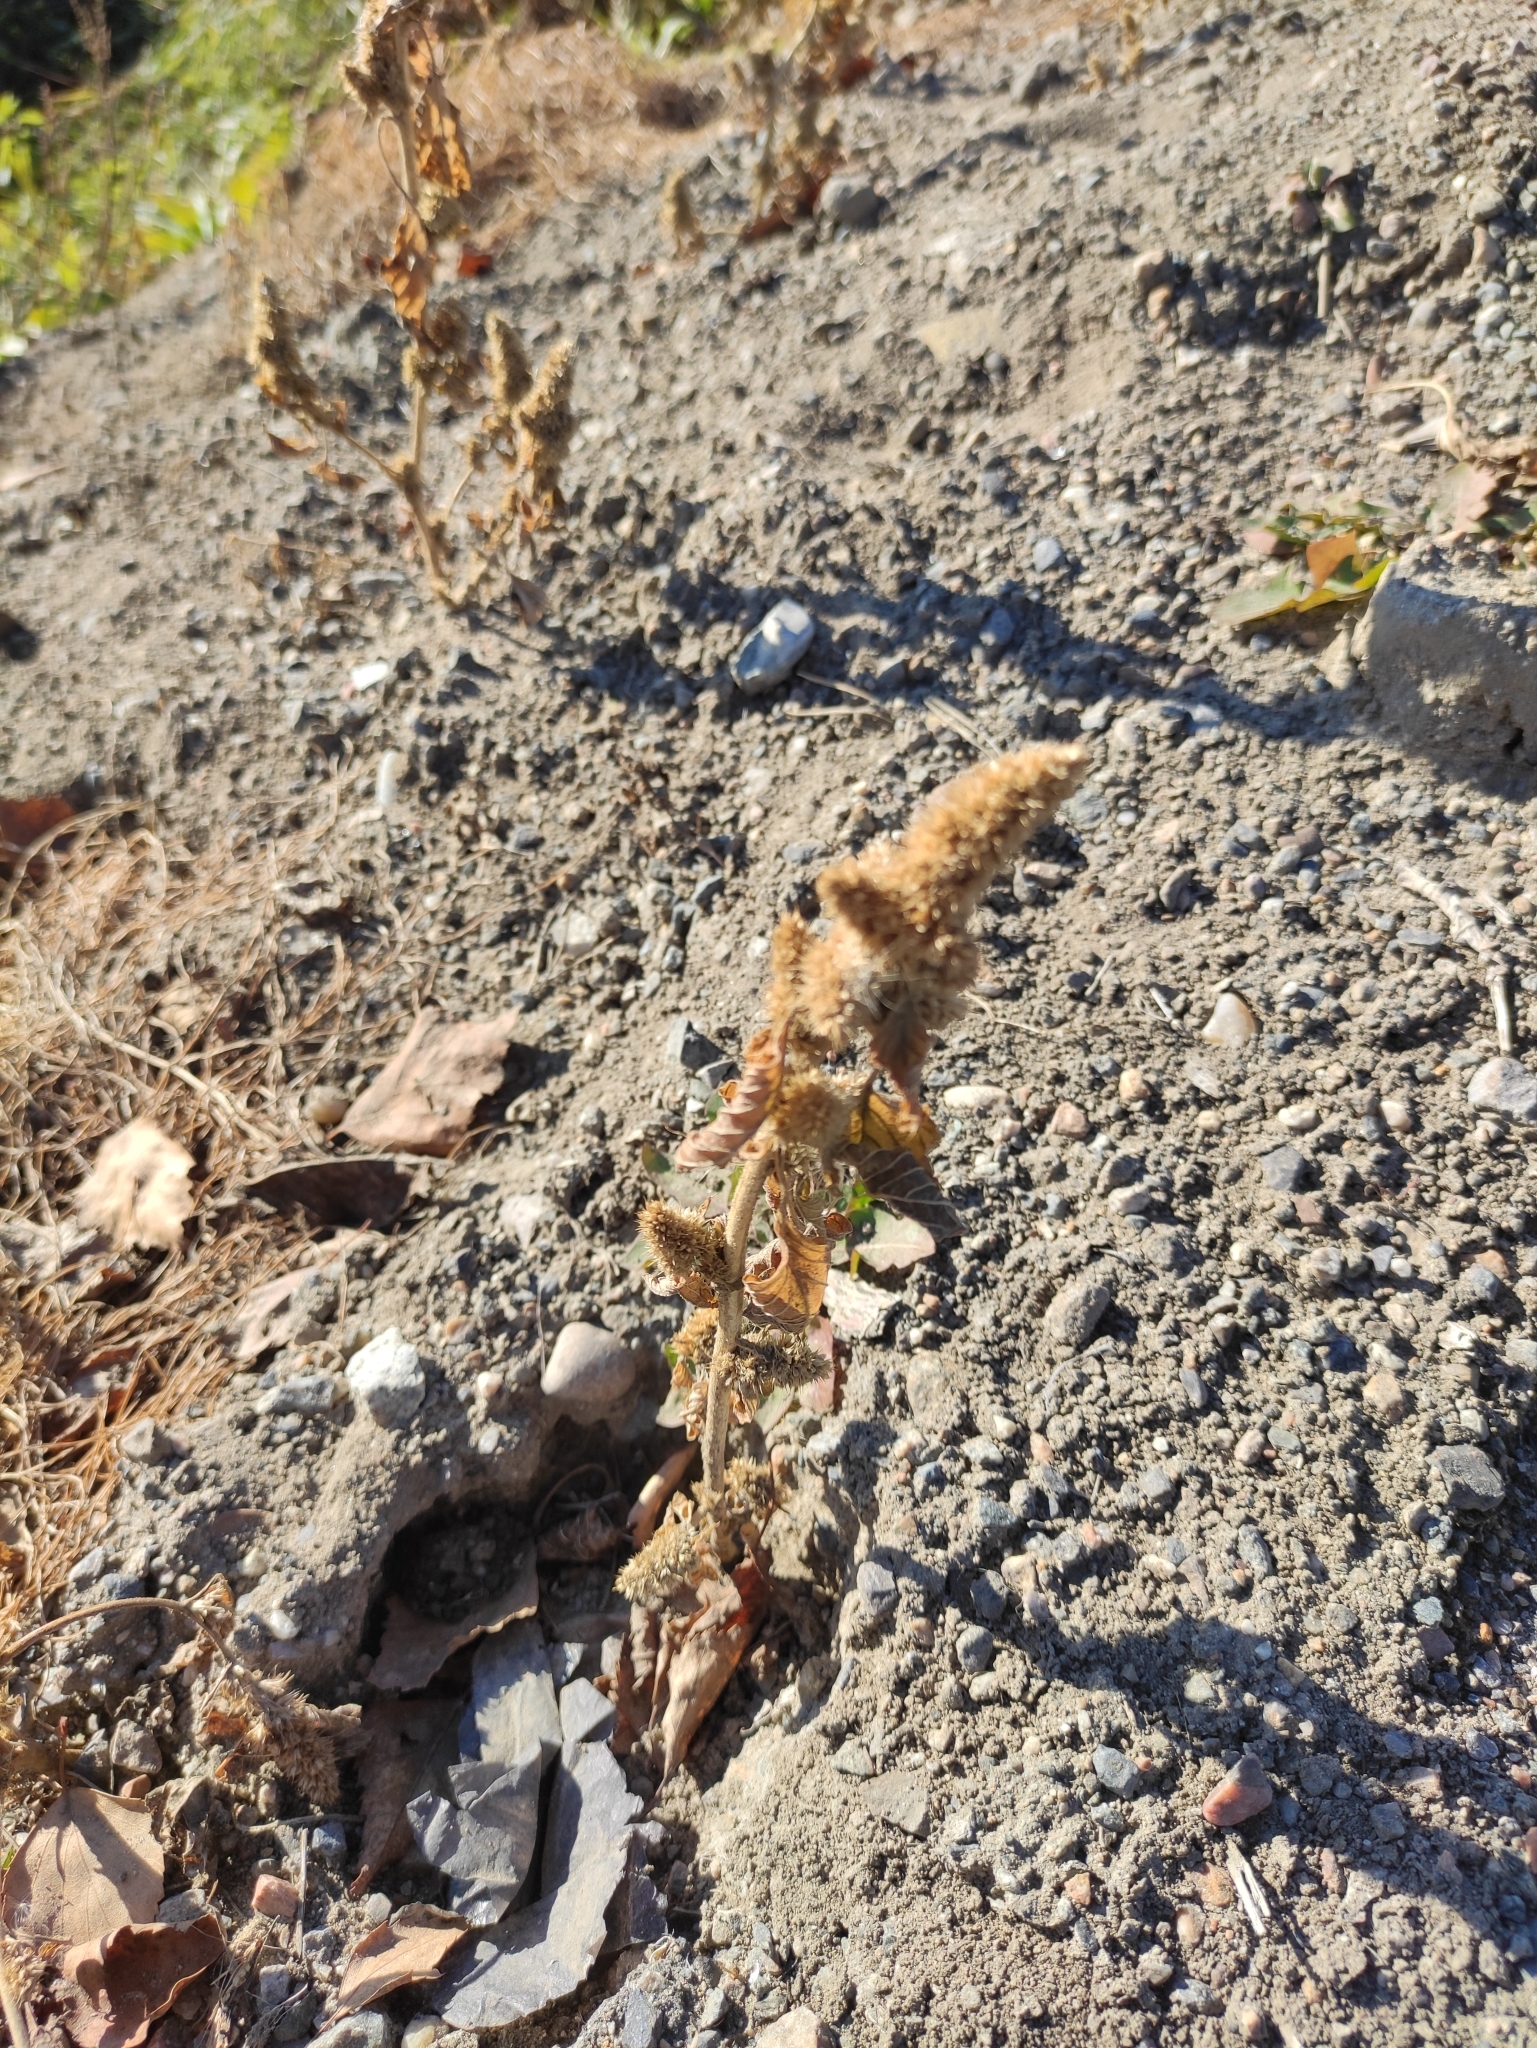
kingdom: Plantae
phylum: Tracheophyta
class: Magnoliopsida
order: Caryophyllales
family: Amaranthaceae
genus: Amaranthus
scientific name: Amaranthus retroflexus
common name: Redroot amaranth
